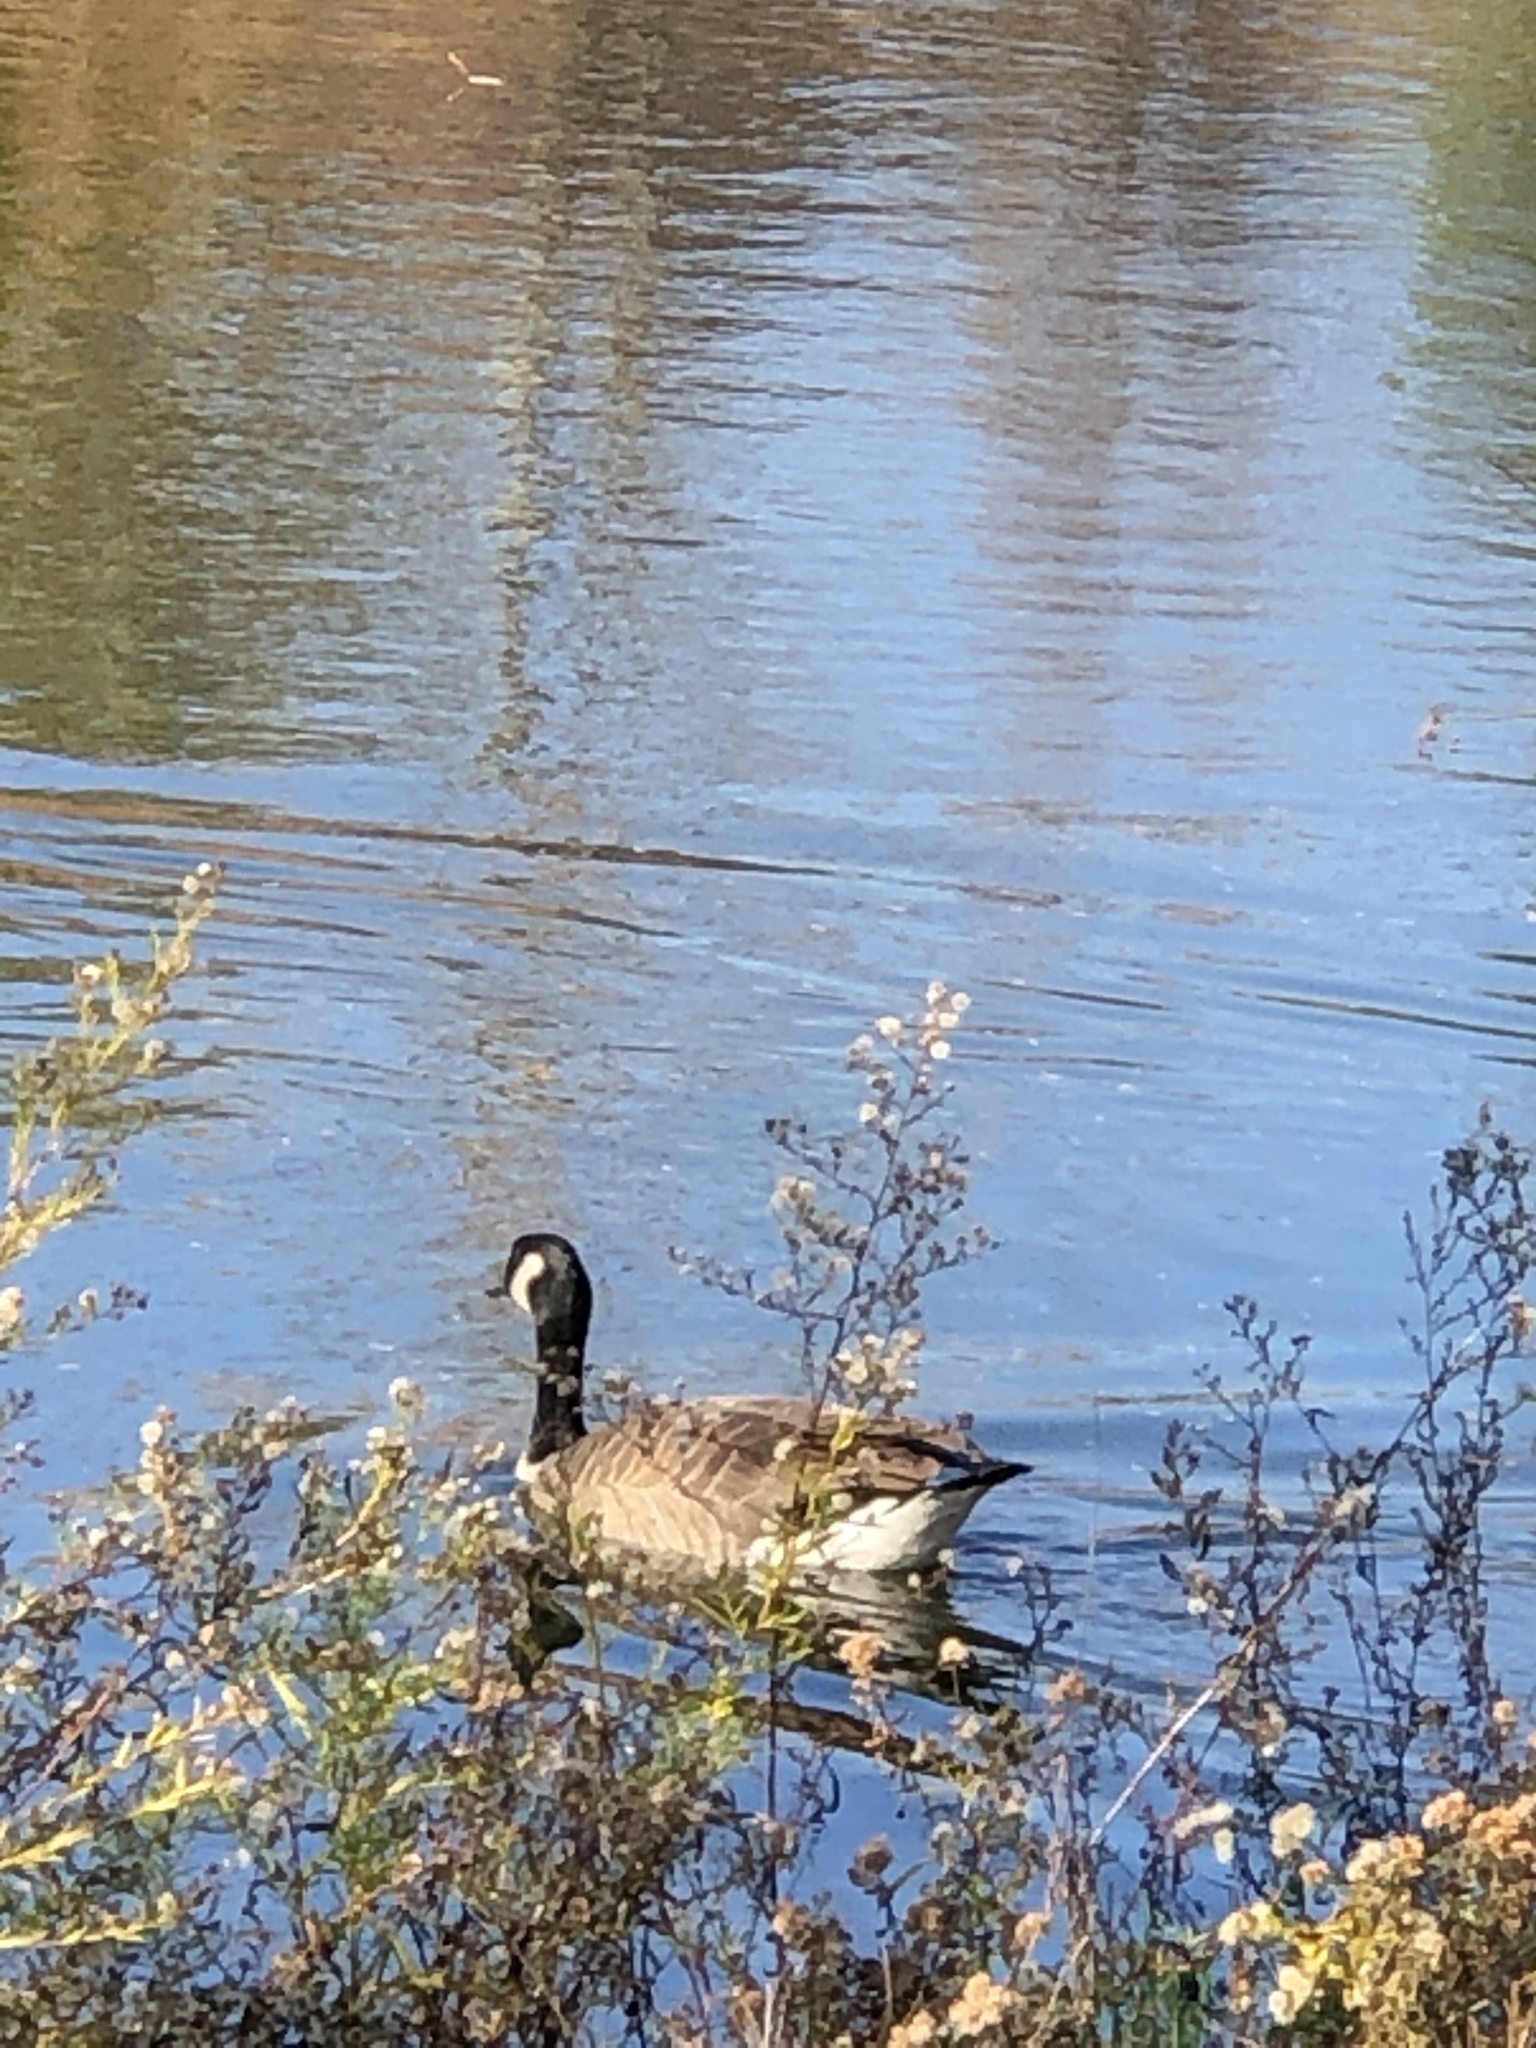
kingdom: Animalia
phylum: Chordata
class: Aves
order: Anseriformes
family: Anatidae
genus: Branta
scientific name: Branta canadensis
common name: Canada goose
